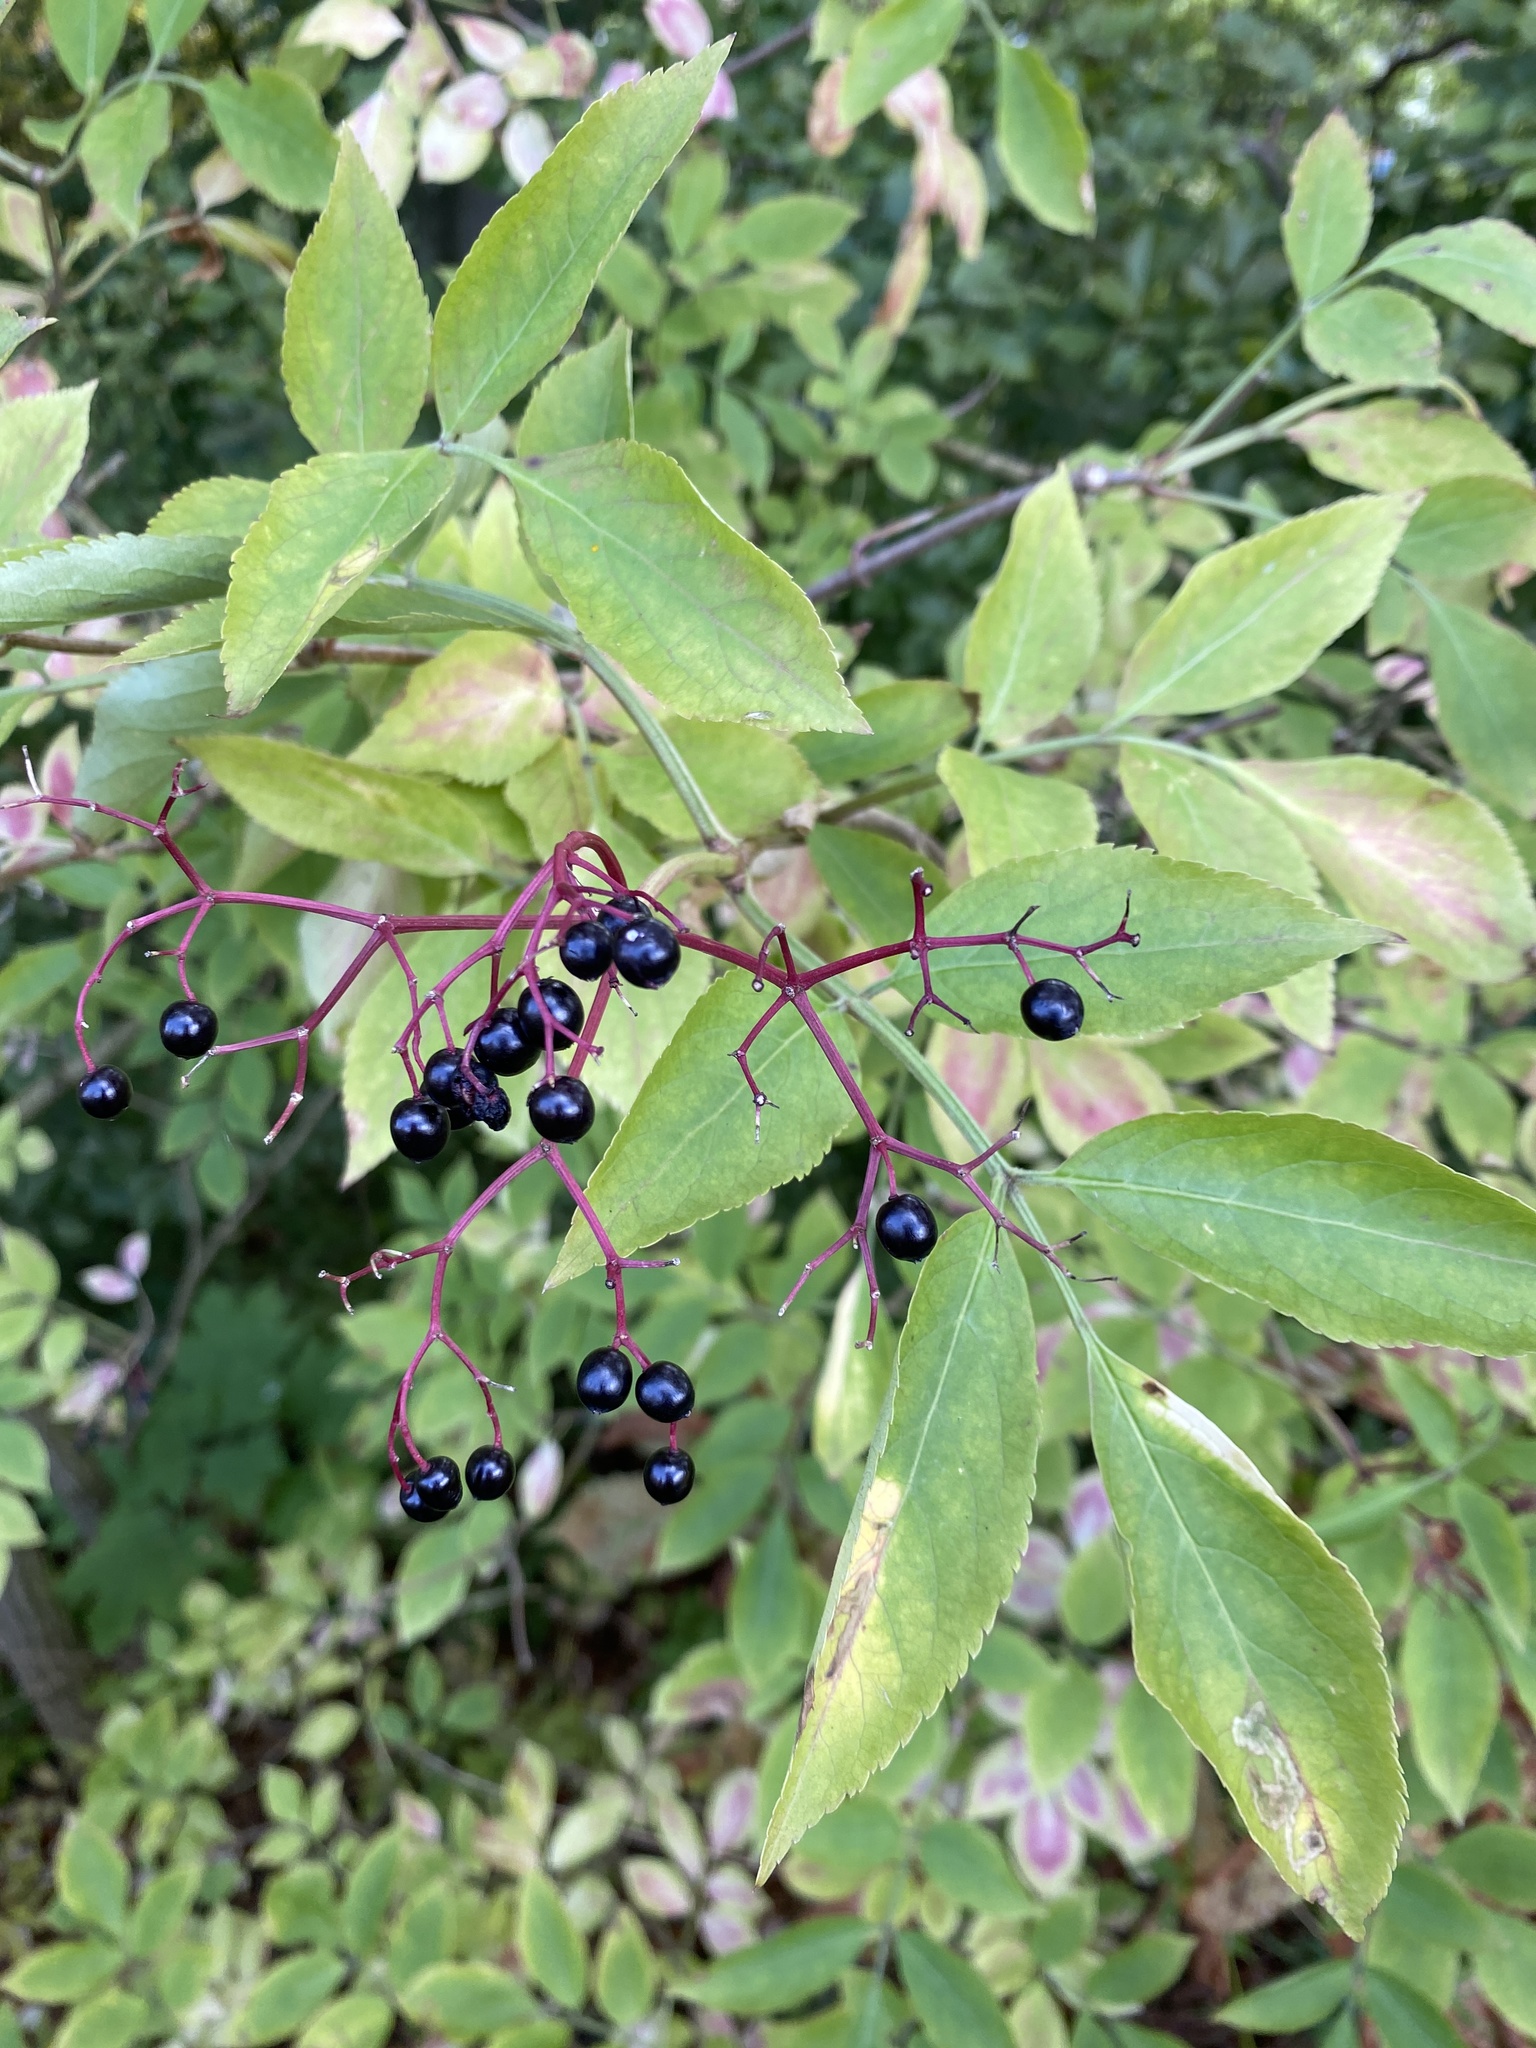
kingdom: Plantae
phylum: Tracheophyta
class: Magnoliopsida
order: Dipsacales
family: Viburnaceae
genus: Sambucus
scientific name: Sambucus nigra
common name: Elder
